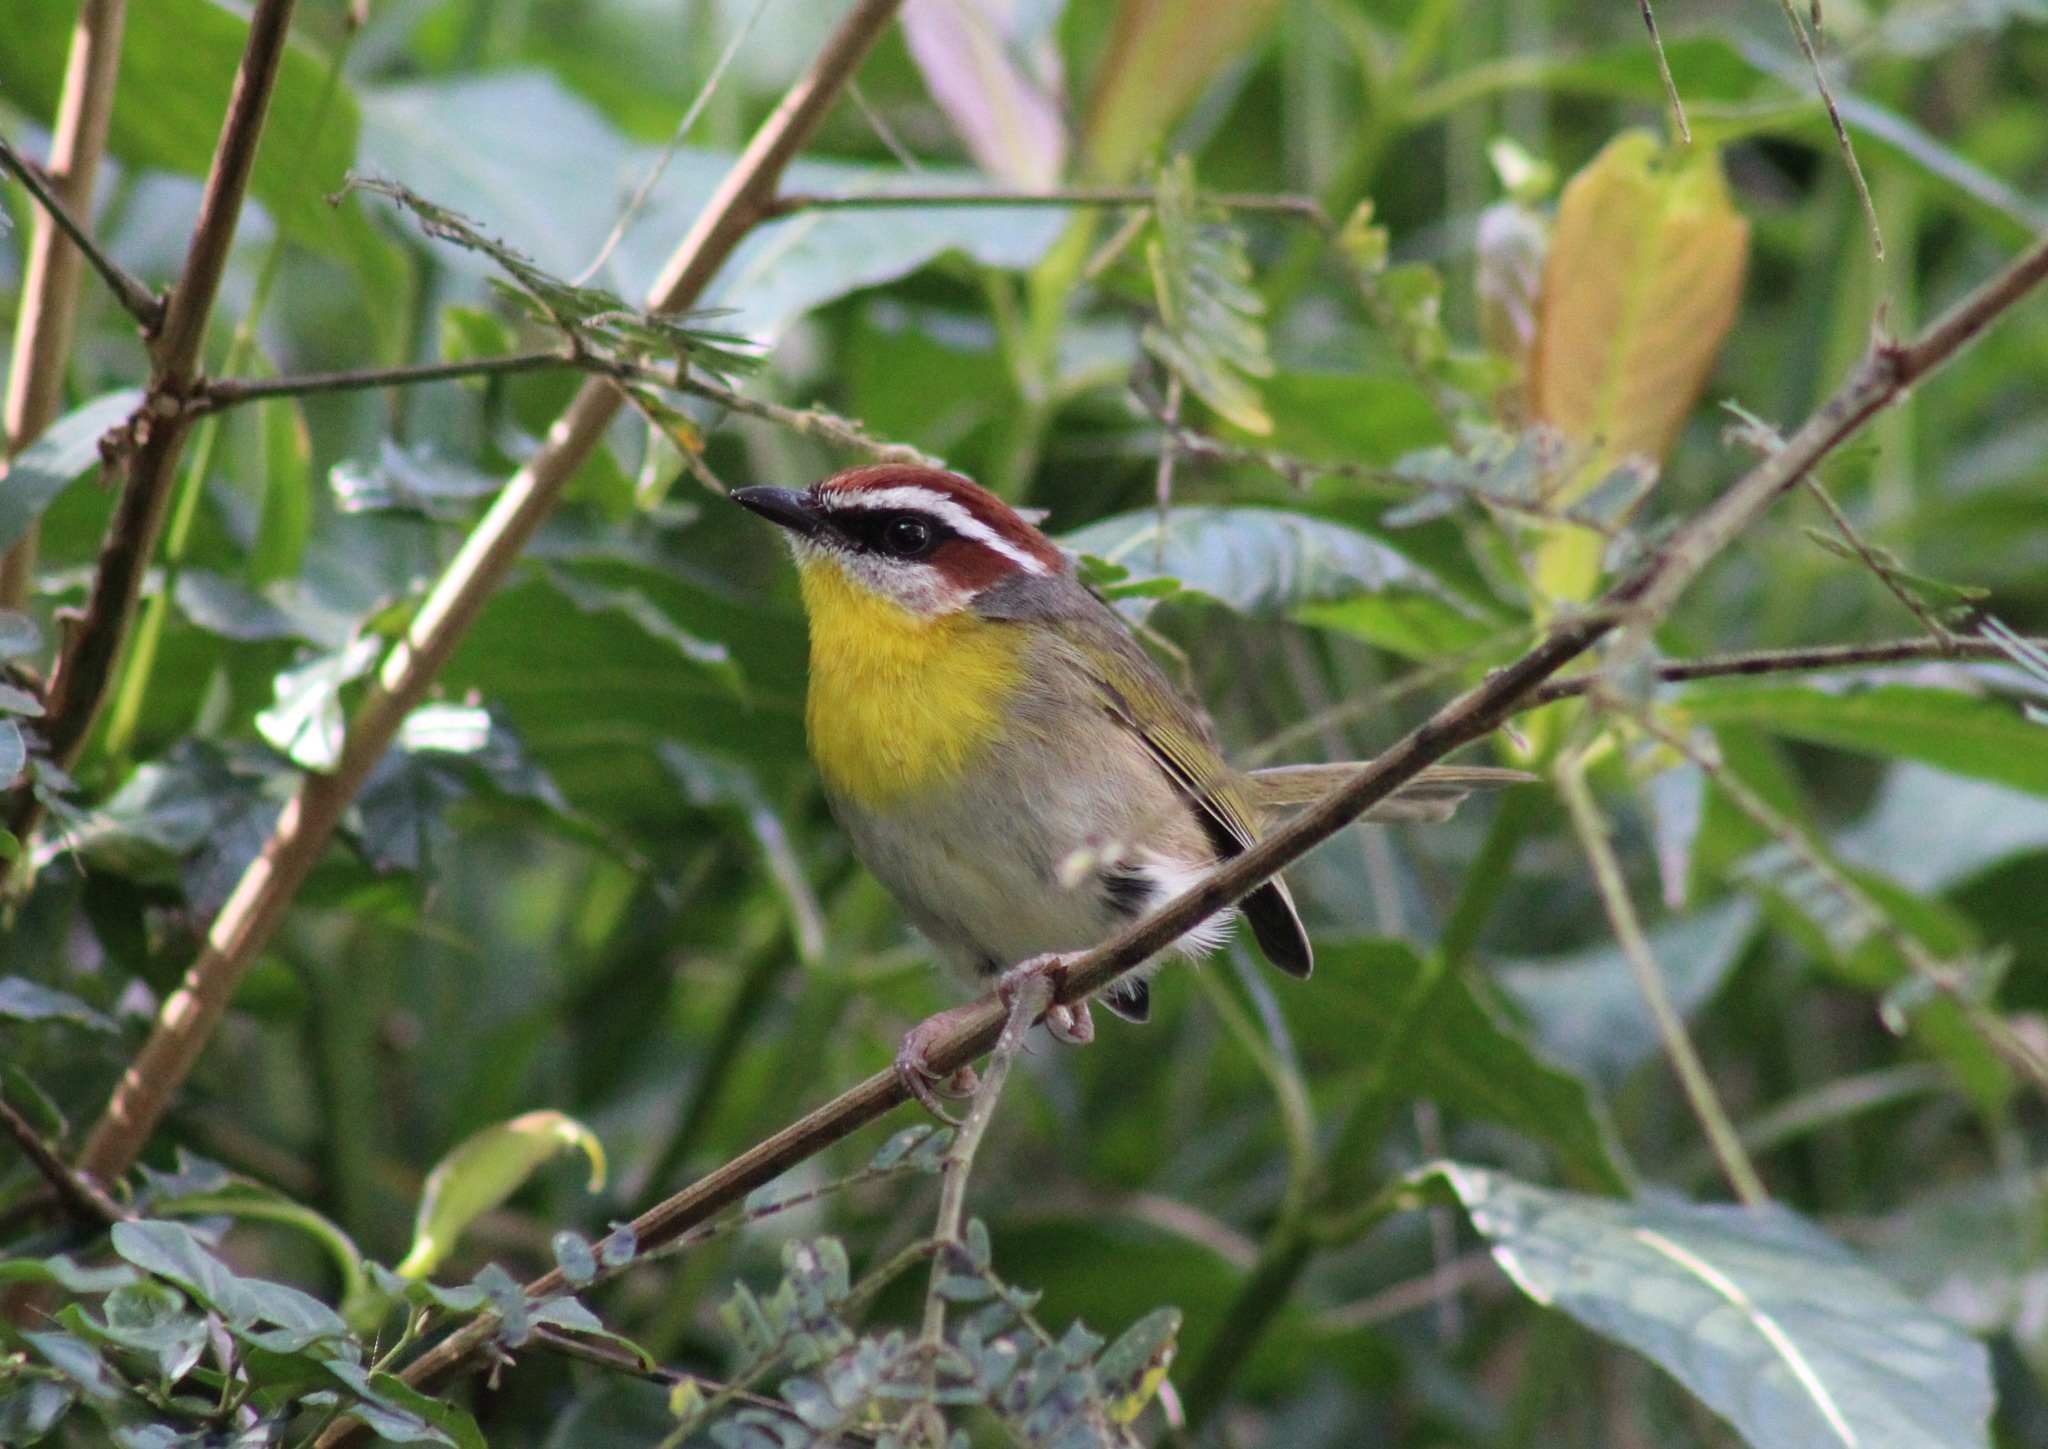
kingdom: Animalia
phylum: Chordata
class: Aves
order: Passeriformes
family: Parulidae
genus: Basileuterus
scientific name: Basileuterus rufifrons
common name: Rufous-capped warbler
